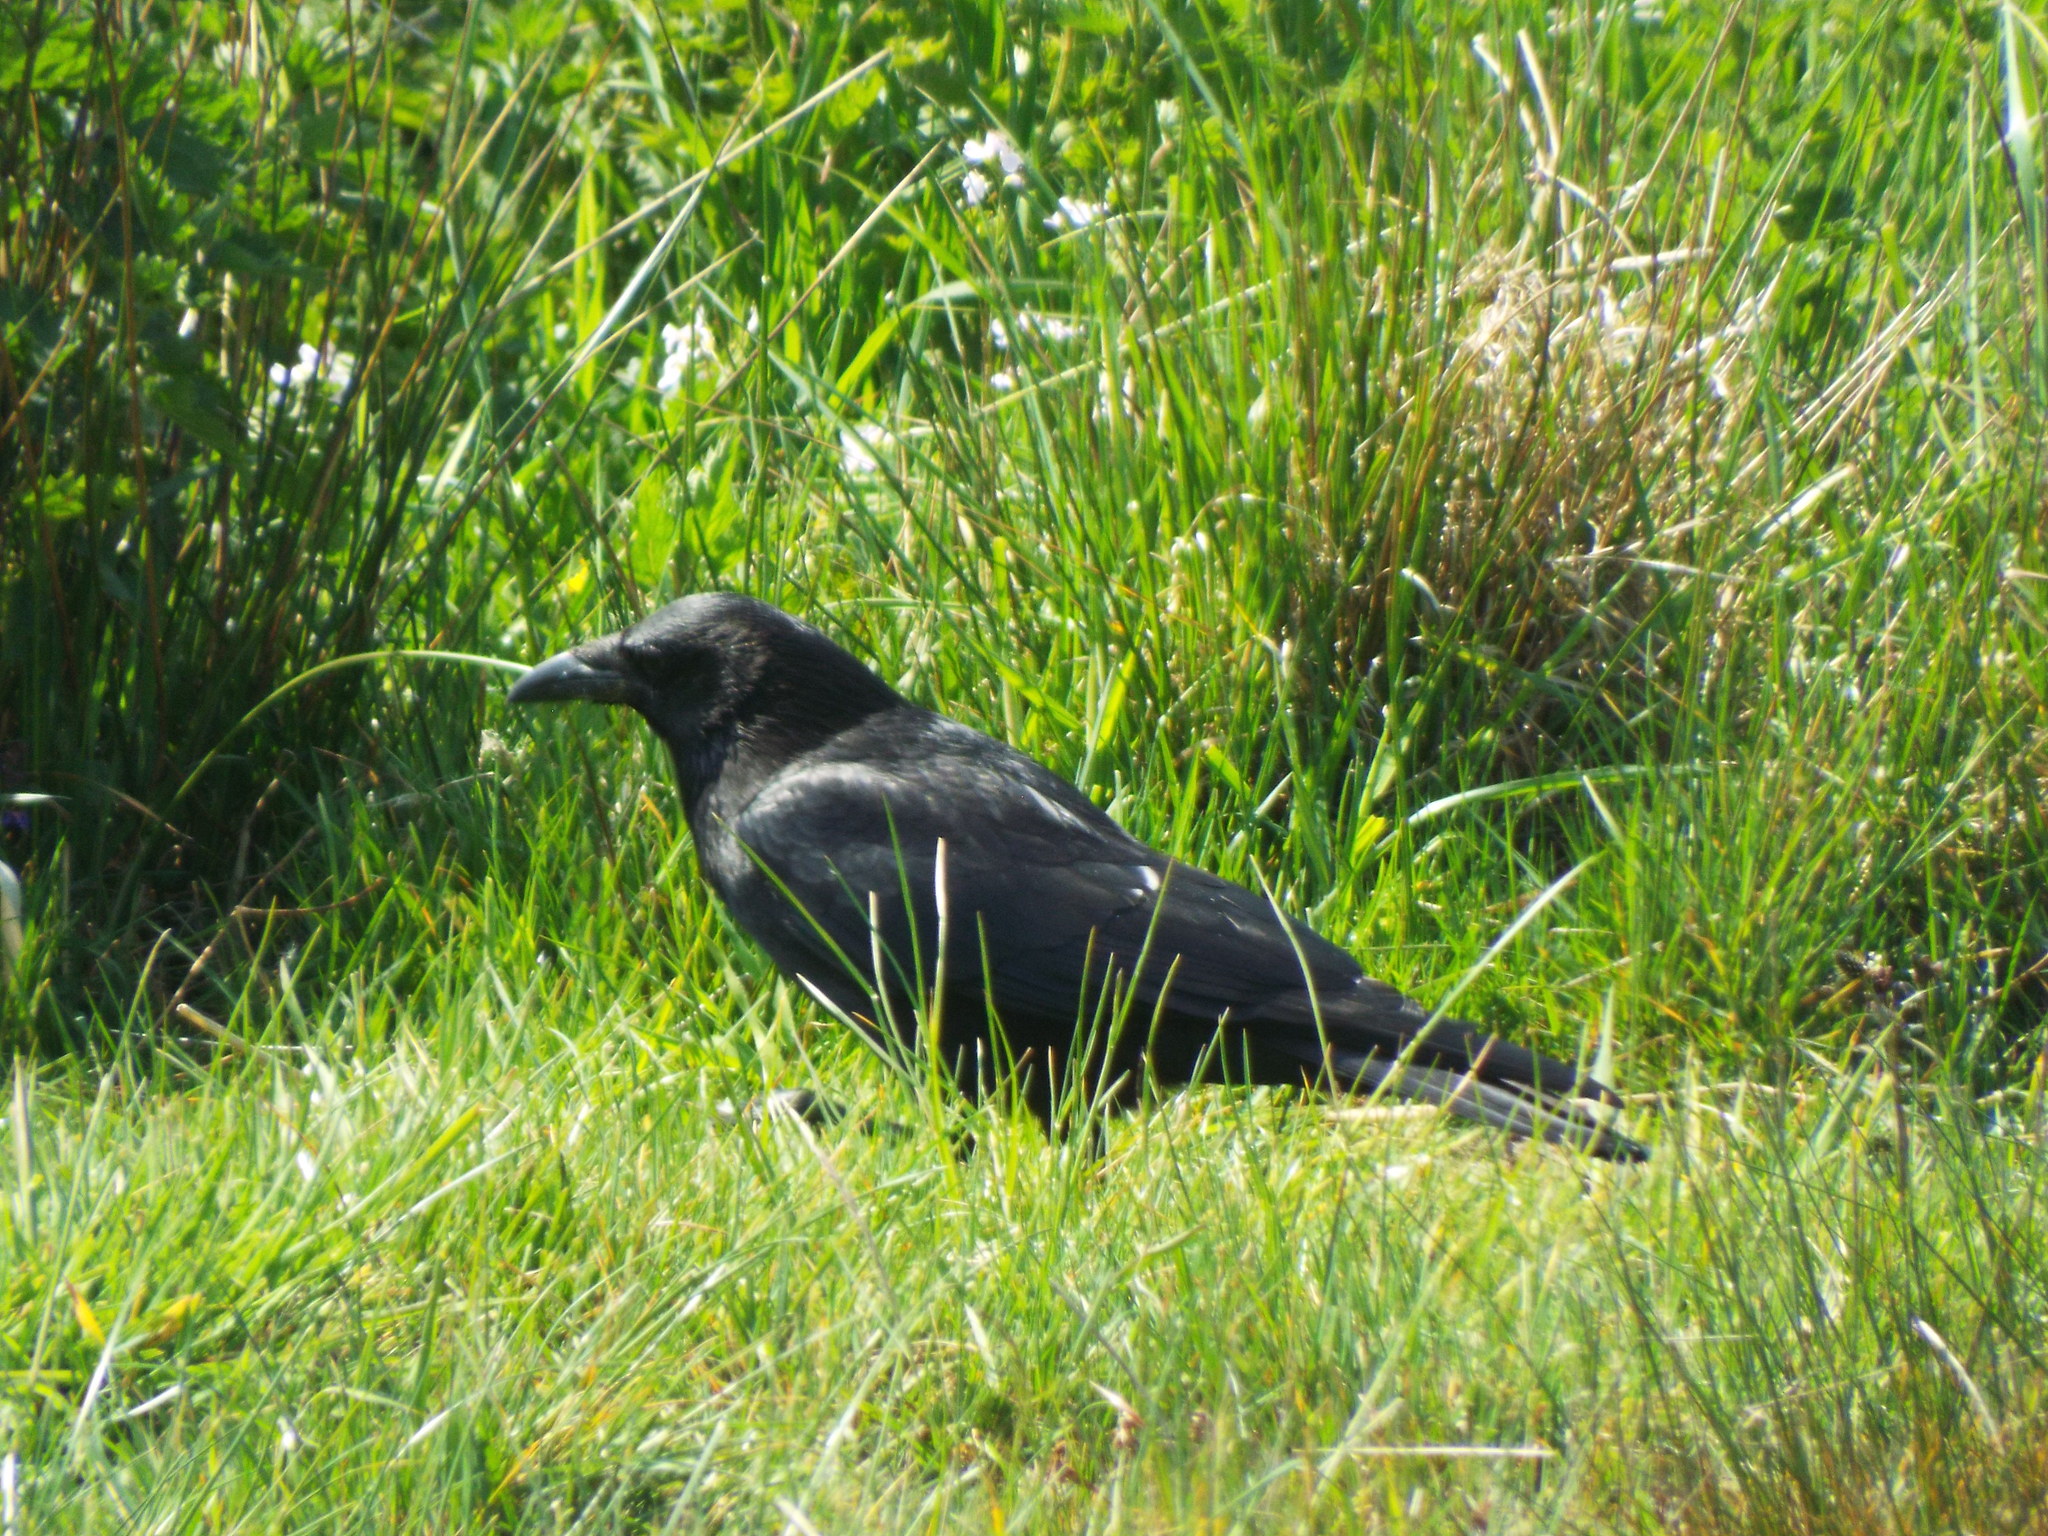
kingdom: Animalia
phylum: Chordata
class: Aves
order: Passeriformes
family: Corvidae
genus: Corvus
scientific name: Corvus corone
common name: Carrion crow
